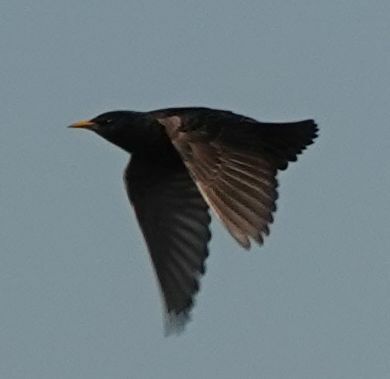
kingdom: Animalia
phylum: Chordata
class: Aves
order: Passeriformes
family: Sturnidae
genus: Sturnus
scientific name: Sturnus vulgaris
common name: Common starling
